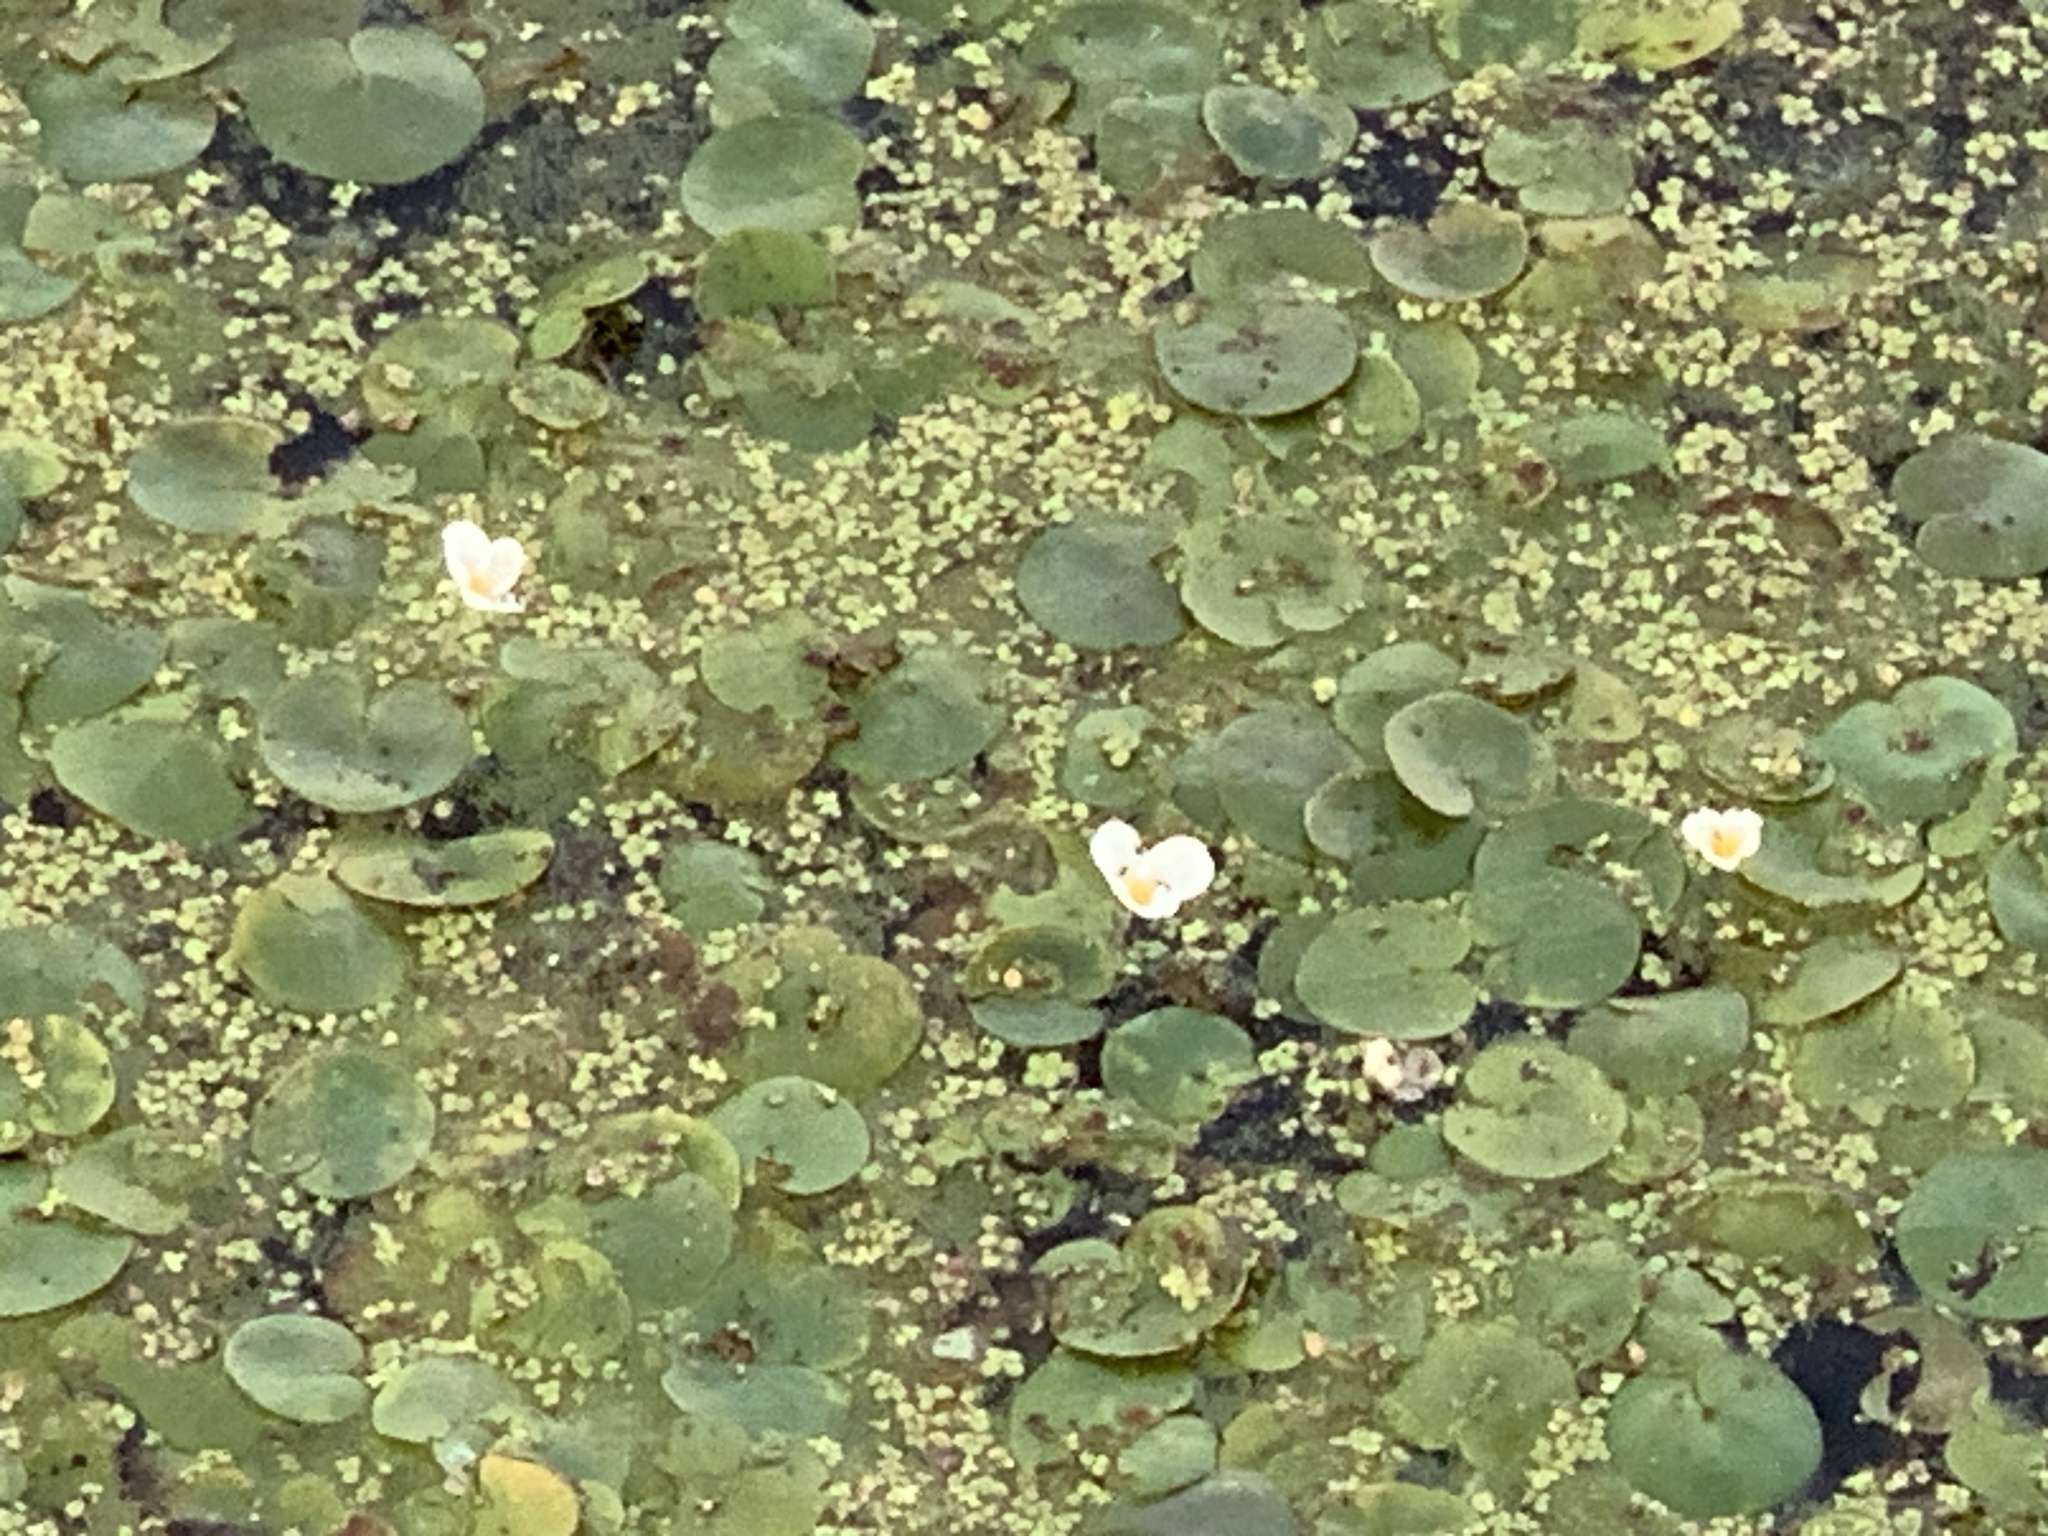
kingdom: Plantae
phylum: Tracheophyta
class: Liliopsida
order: Alismatales
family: Hydrocharitaceae
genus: Hydrocharis
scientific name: Hydrocharis morsus-ranae
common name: Frogbit
